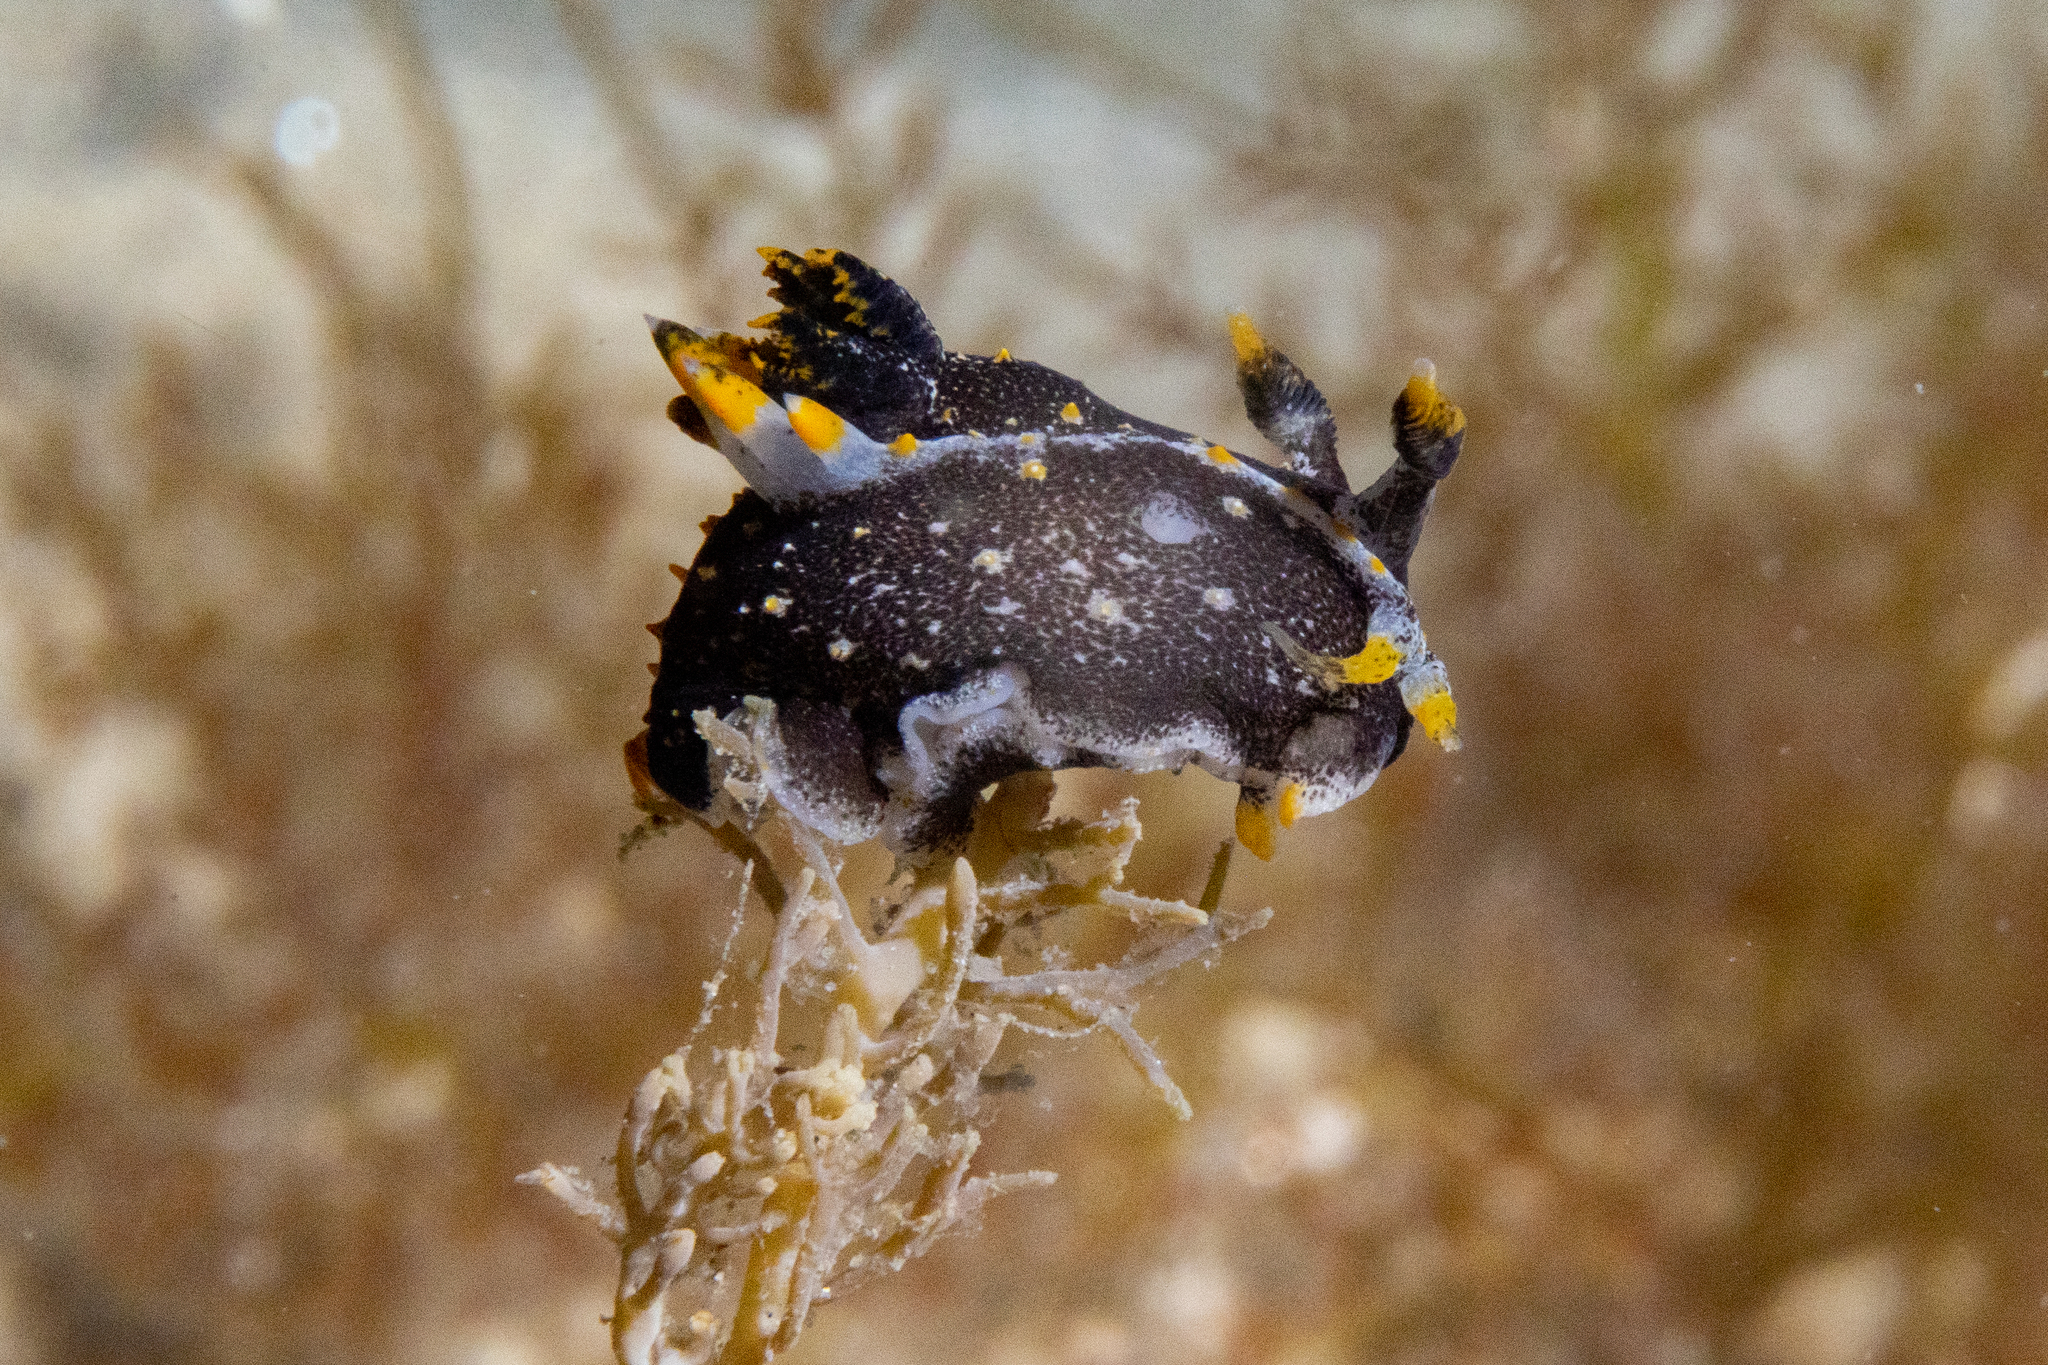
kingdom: Animalia
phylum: Mollusca
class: Gastropoda
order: Nudibranchia
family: Polyceridae
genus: Polycera
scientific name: Polycera hedgpethi
